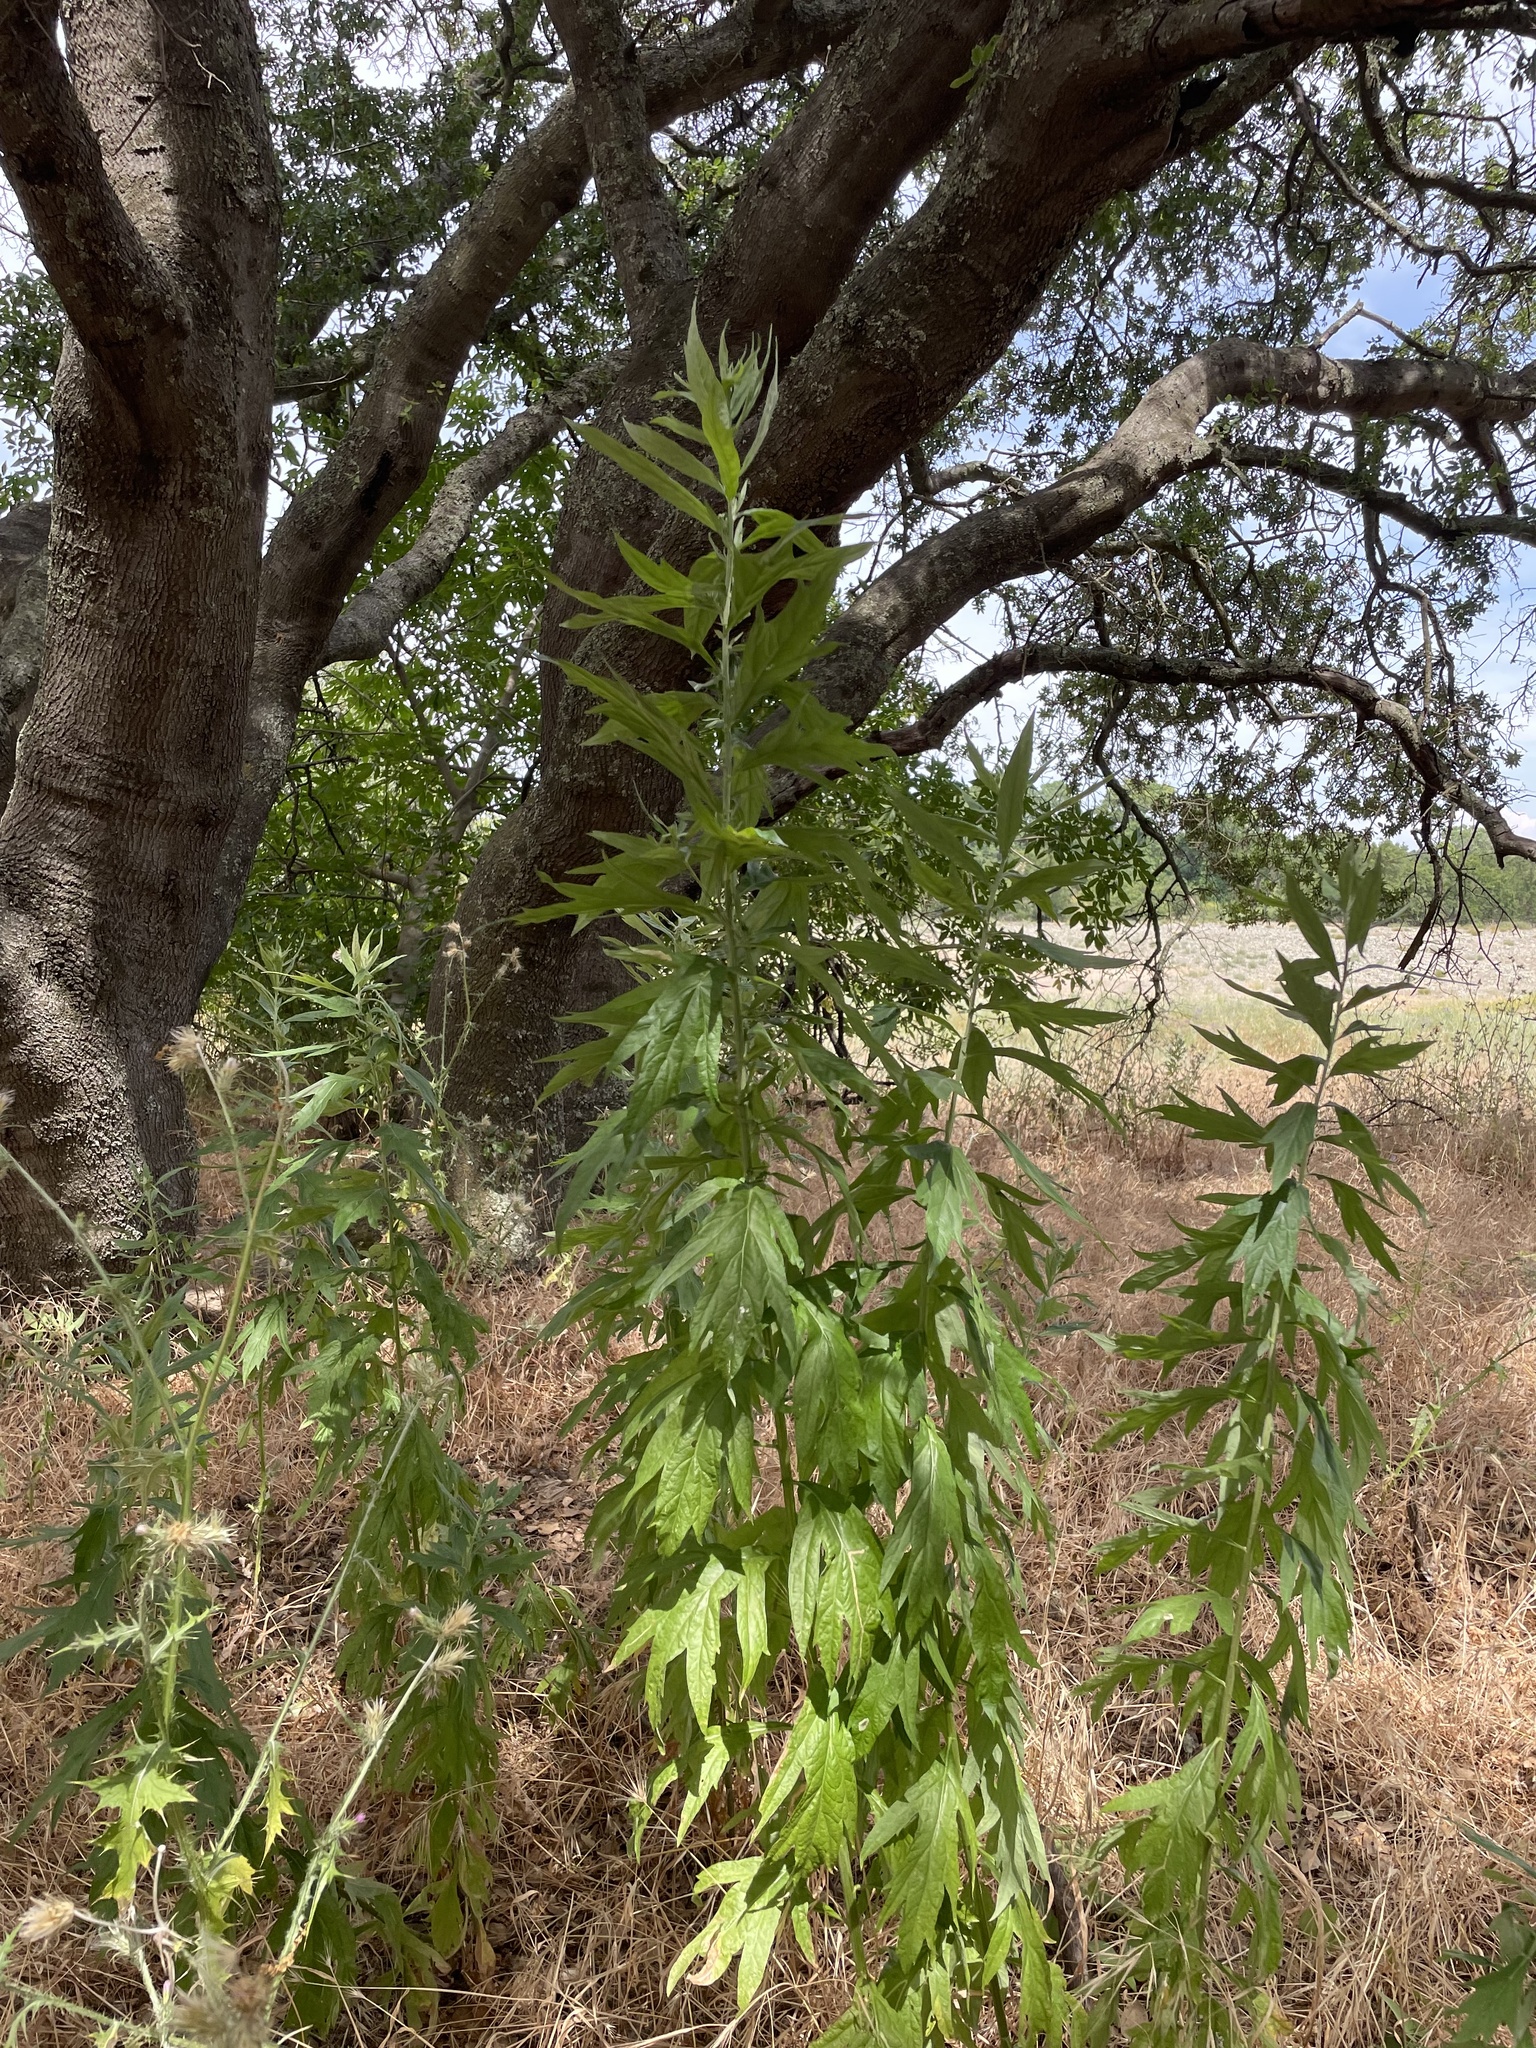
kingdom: Plantae
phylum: Tracheophyta
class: Magnoliopsida
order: Asterales
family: Asteraceae
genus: Artemisia
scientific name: Artemisia douglasiana
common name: Northwest mugwort
